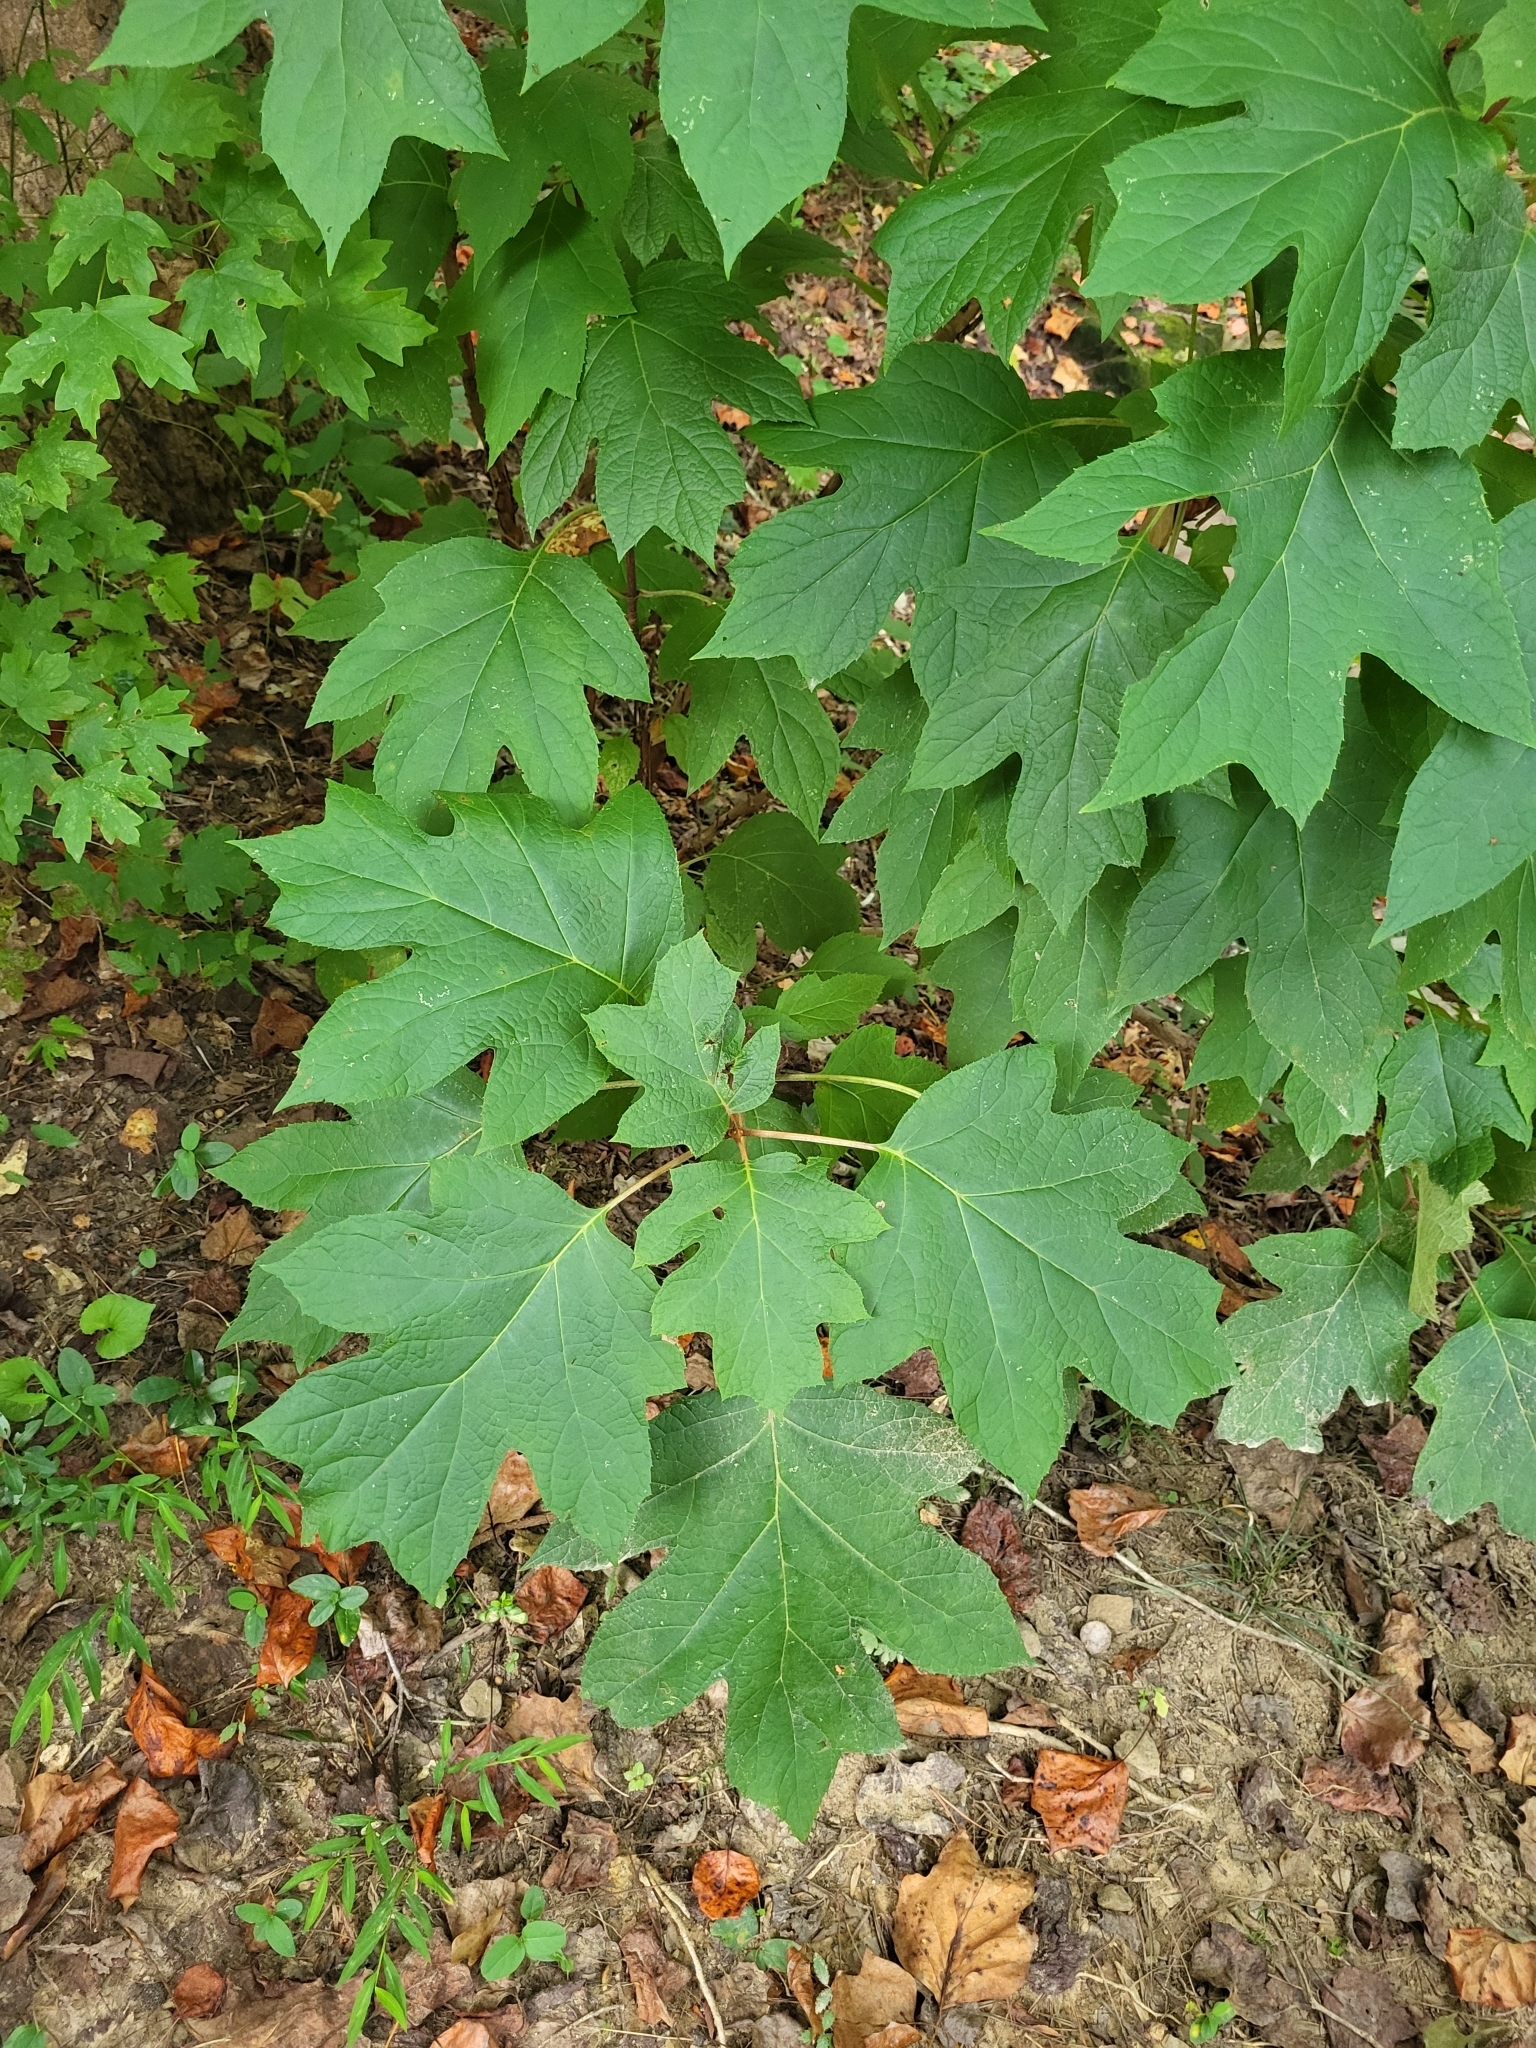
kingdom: Plantae
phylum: Tracheophyta
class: Magnoliopsida
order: Cornales
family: Hydrangeaceae
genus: Hydrangea
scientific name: Hydrangea quercifolia
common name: Oak-leaf hydrangea
